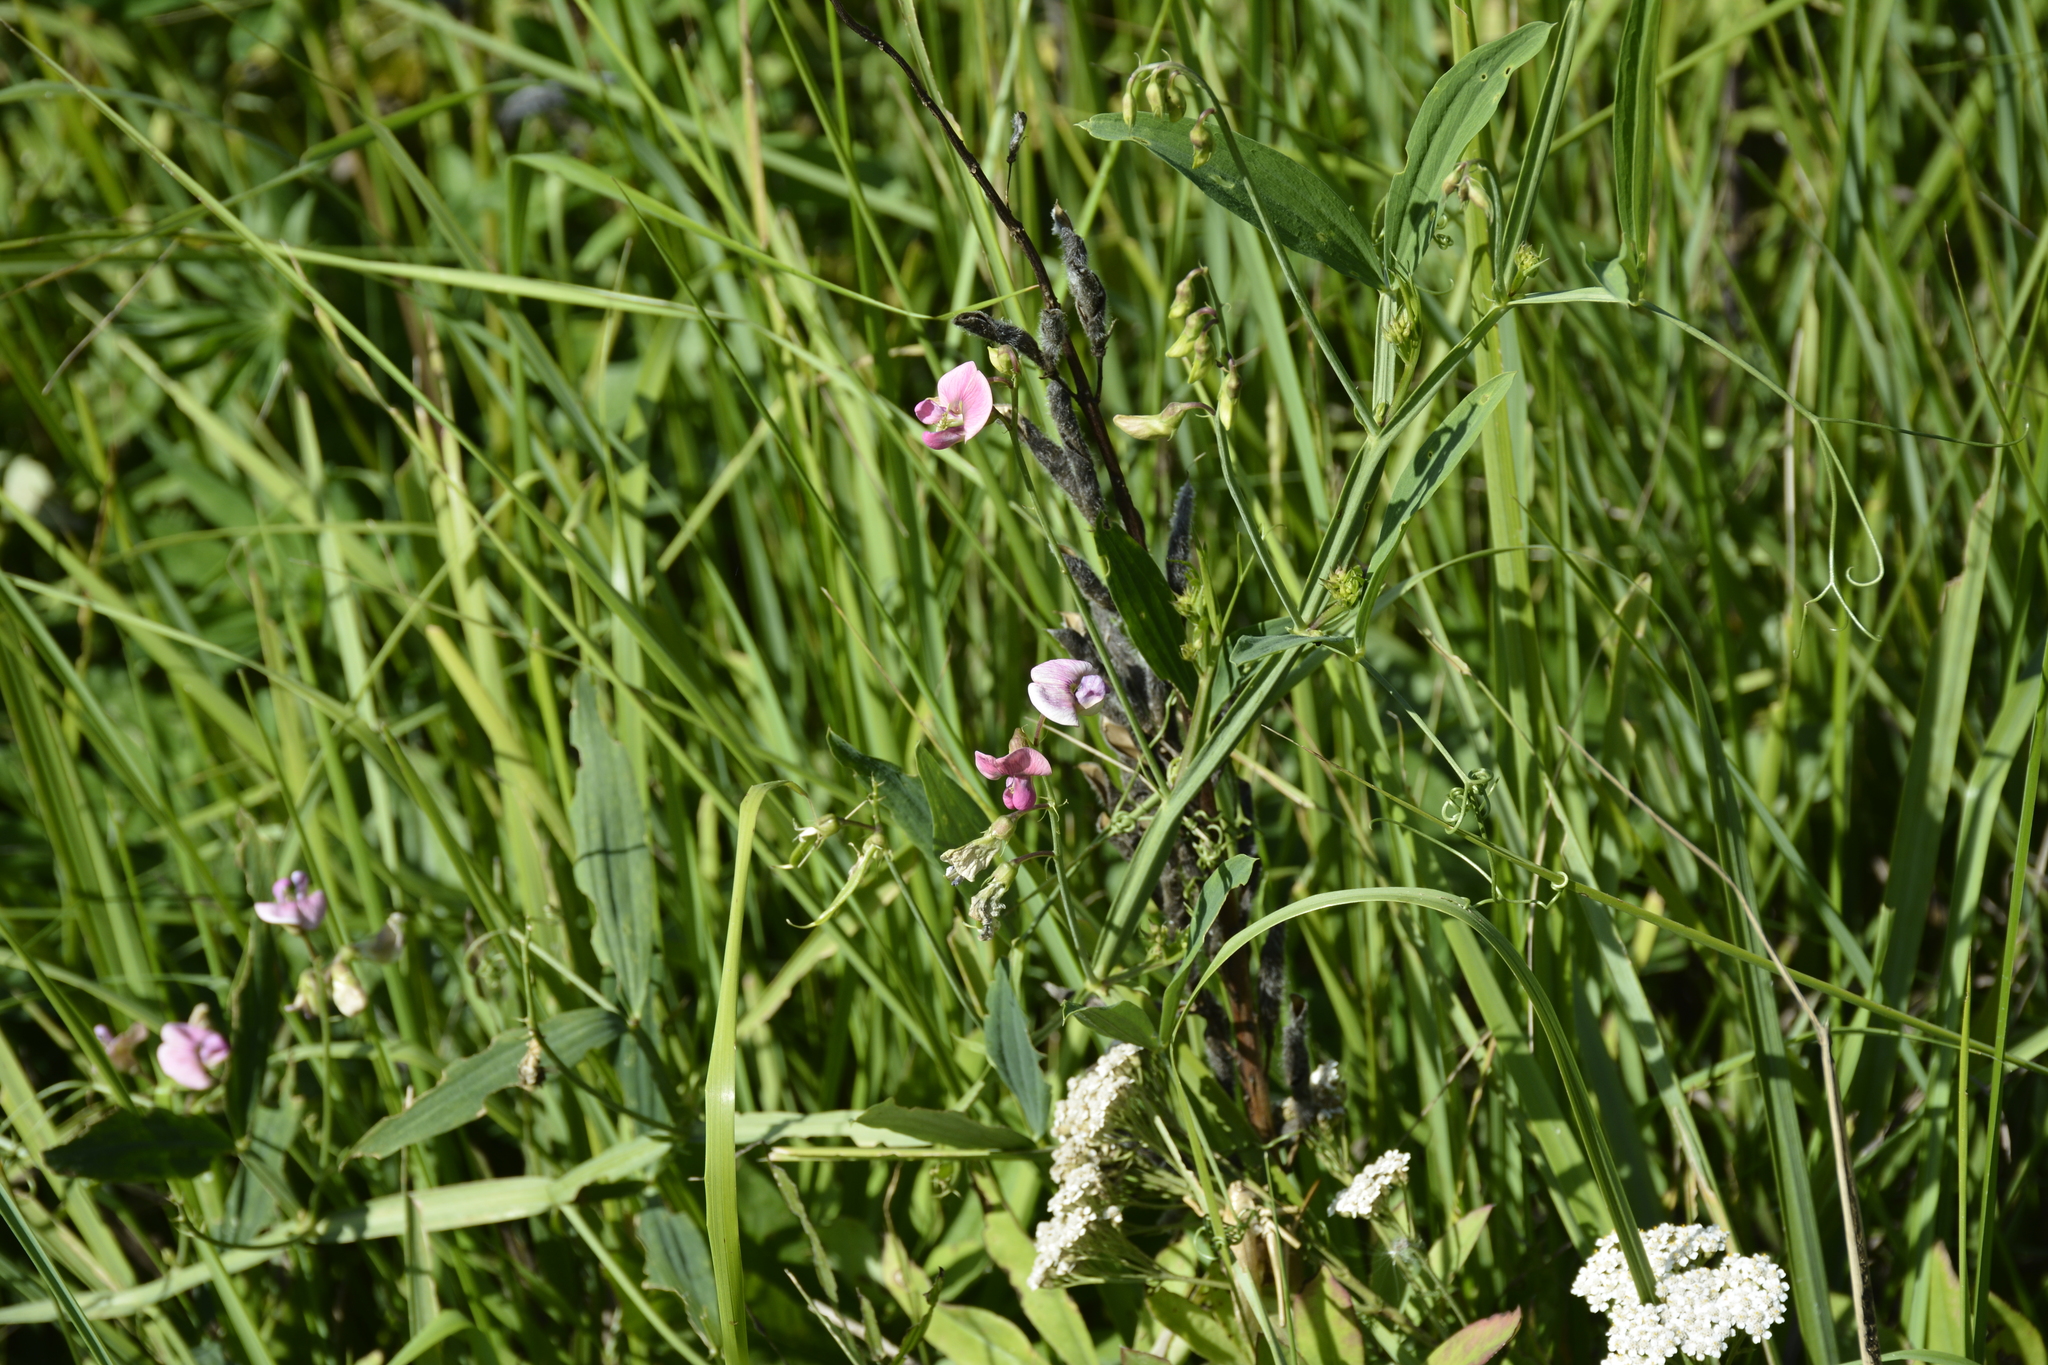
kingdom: Plantae
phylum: Tracheophyta
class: Magnoliopsida
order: Fabales
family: Fabaceae
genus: Lathyrus
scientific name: Lathyrus sylvestris
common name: Flat pea
